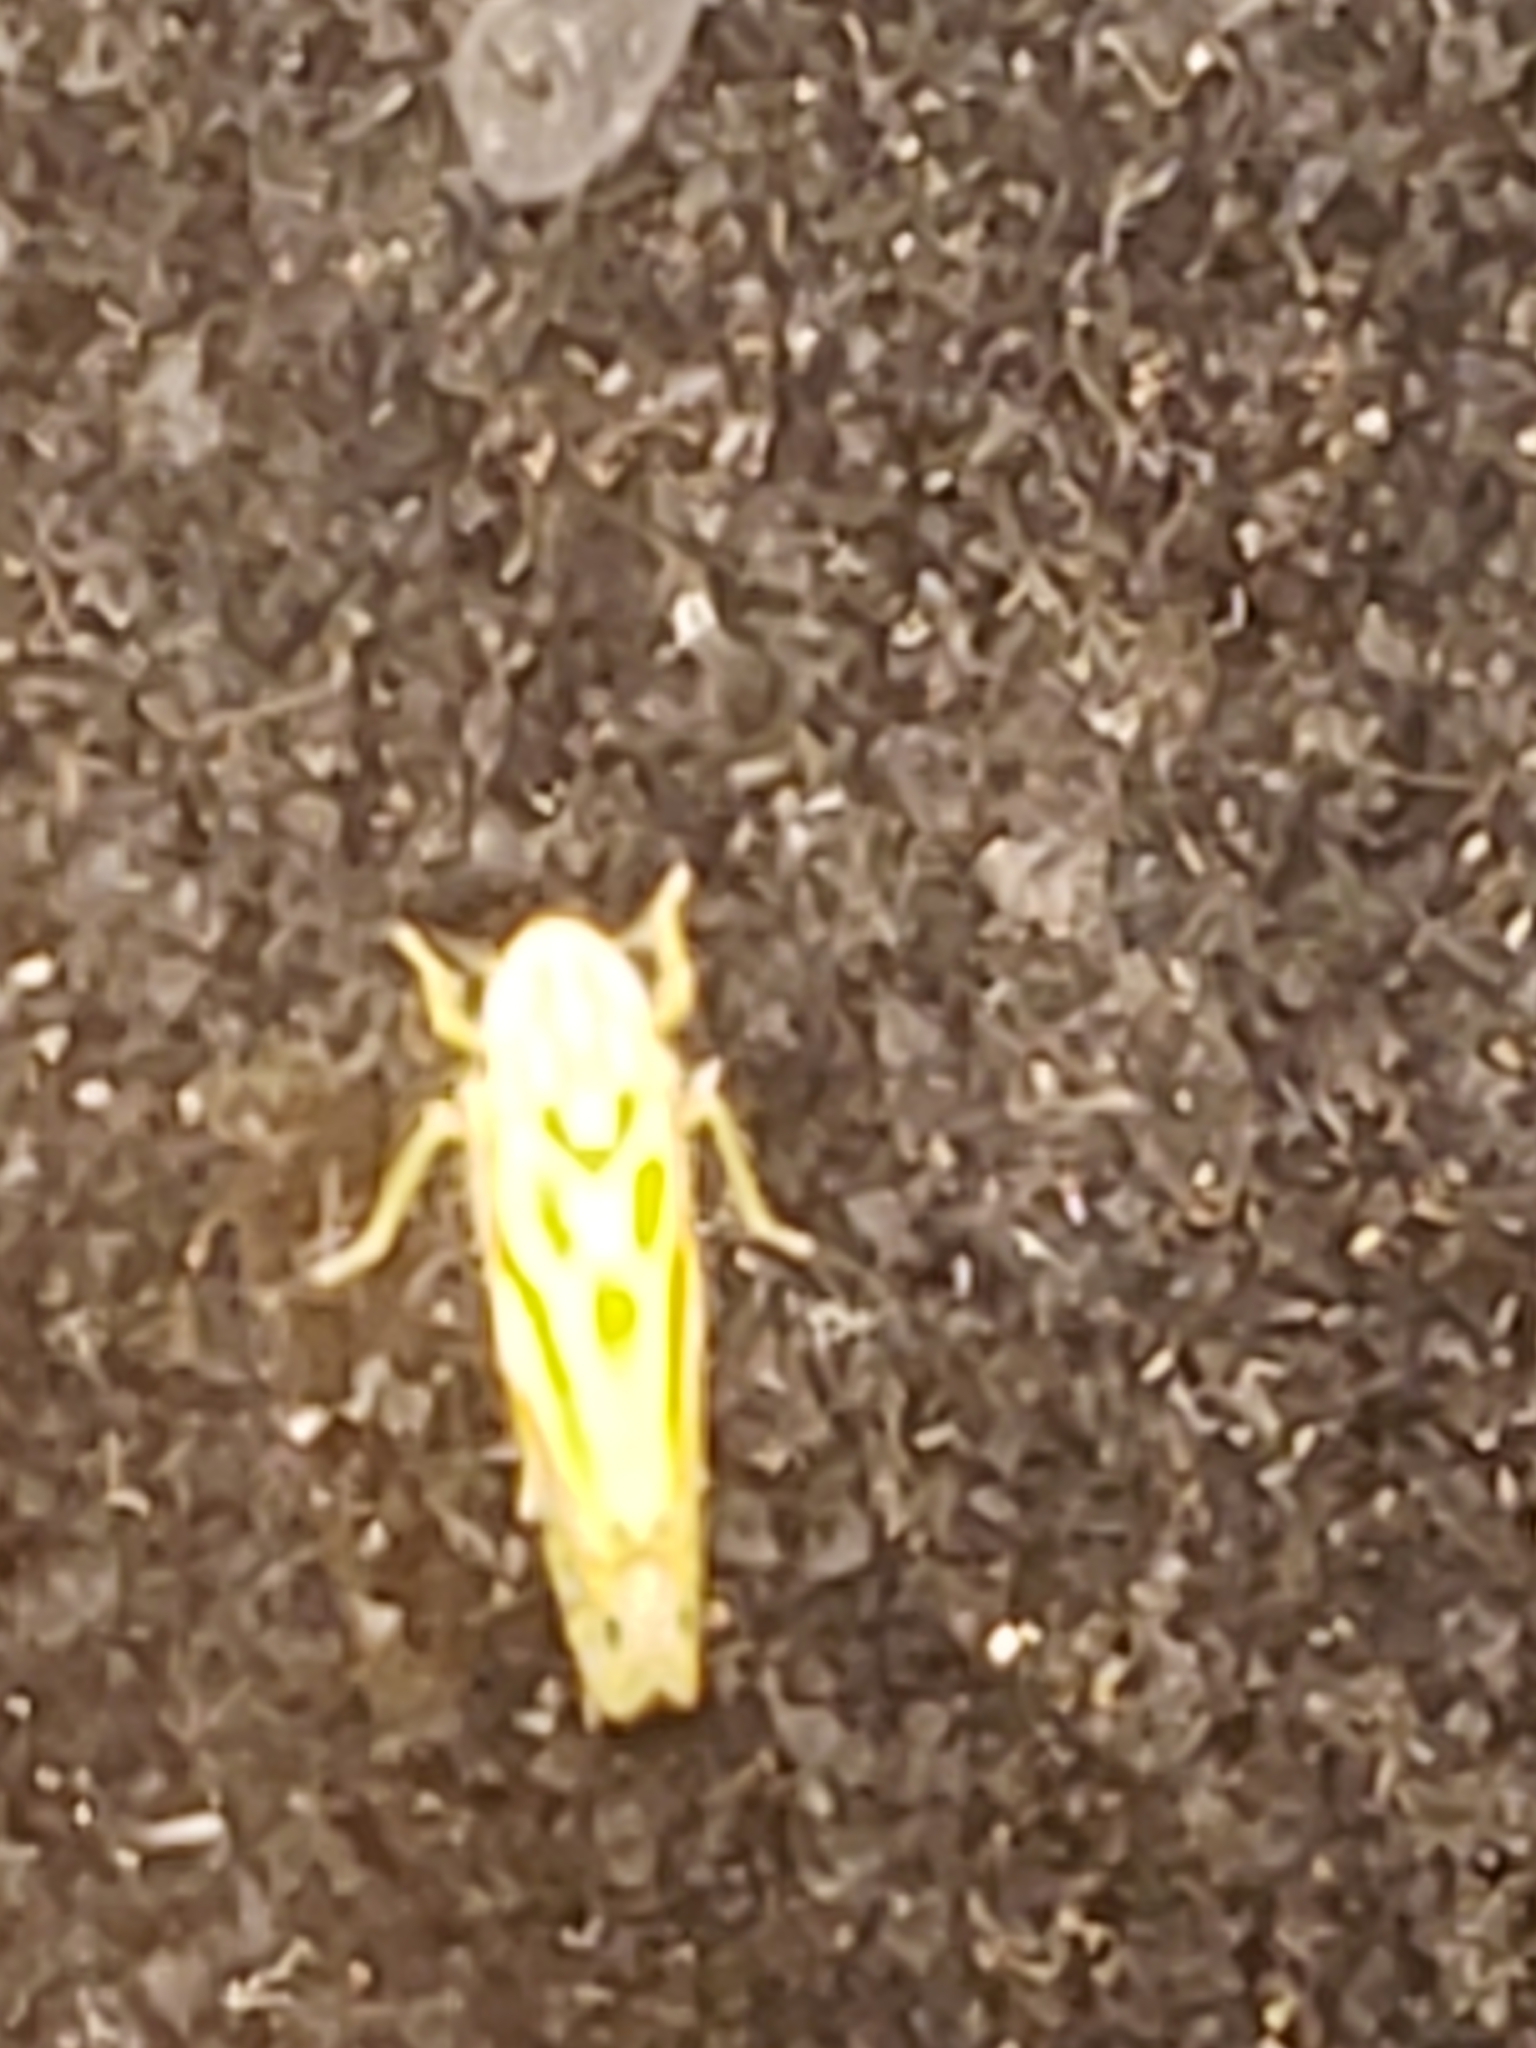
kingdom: Animalia
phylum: Arthropoda
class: Insecta
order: Hemiptera
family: Cicadellidae
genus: Alconeura
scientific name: Alconeura macra
